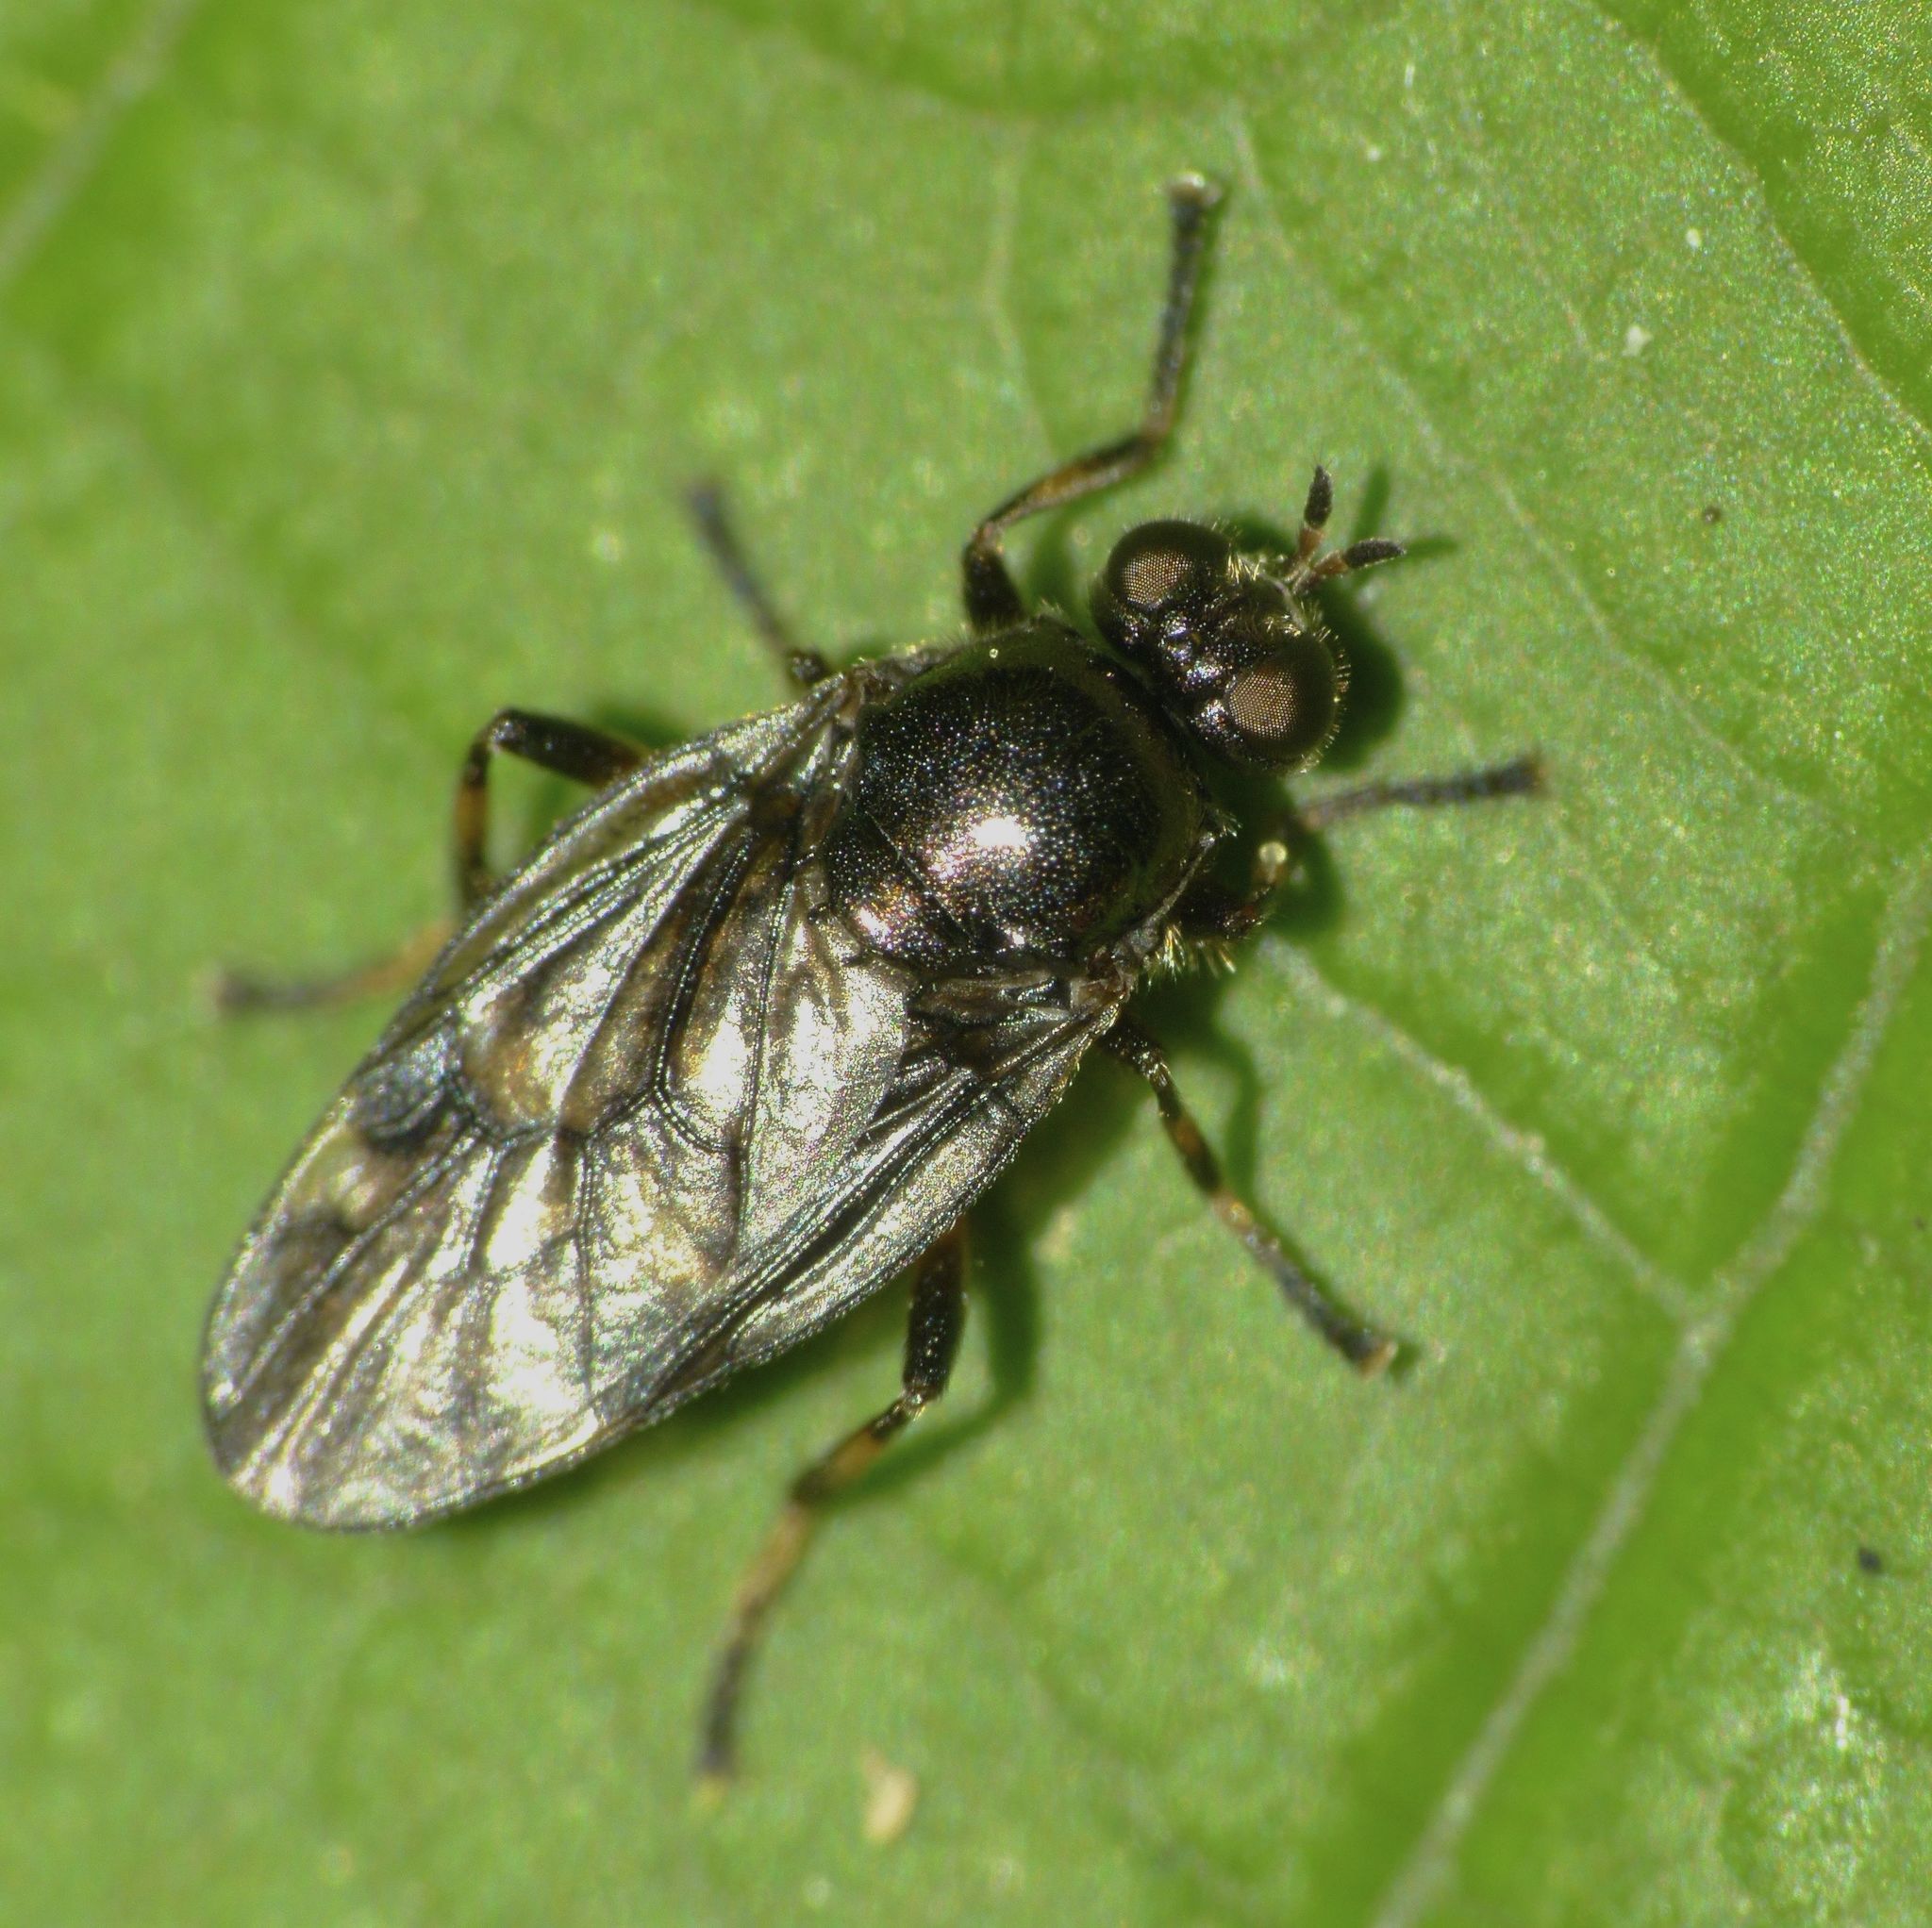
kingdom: Animalia
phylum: Arthropoda
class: Insecta
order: Diptera
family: Stratiomyidae
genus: Berisina
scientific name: Berisina maculipennis
